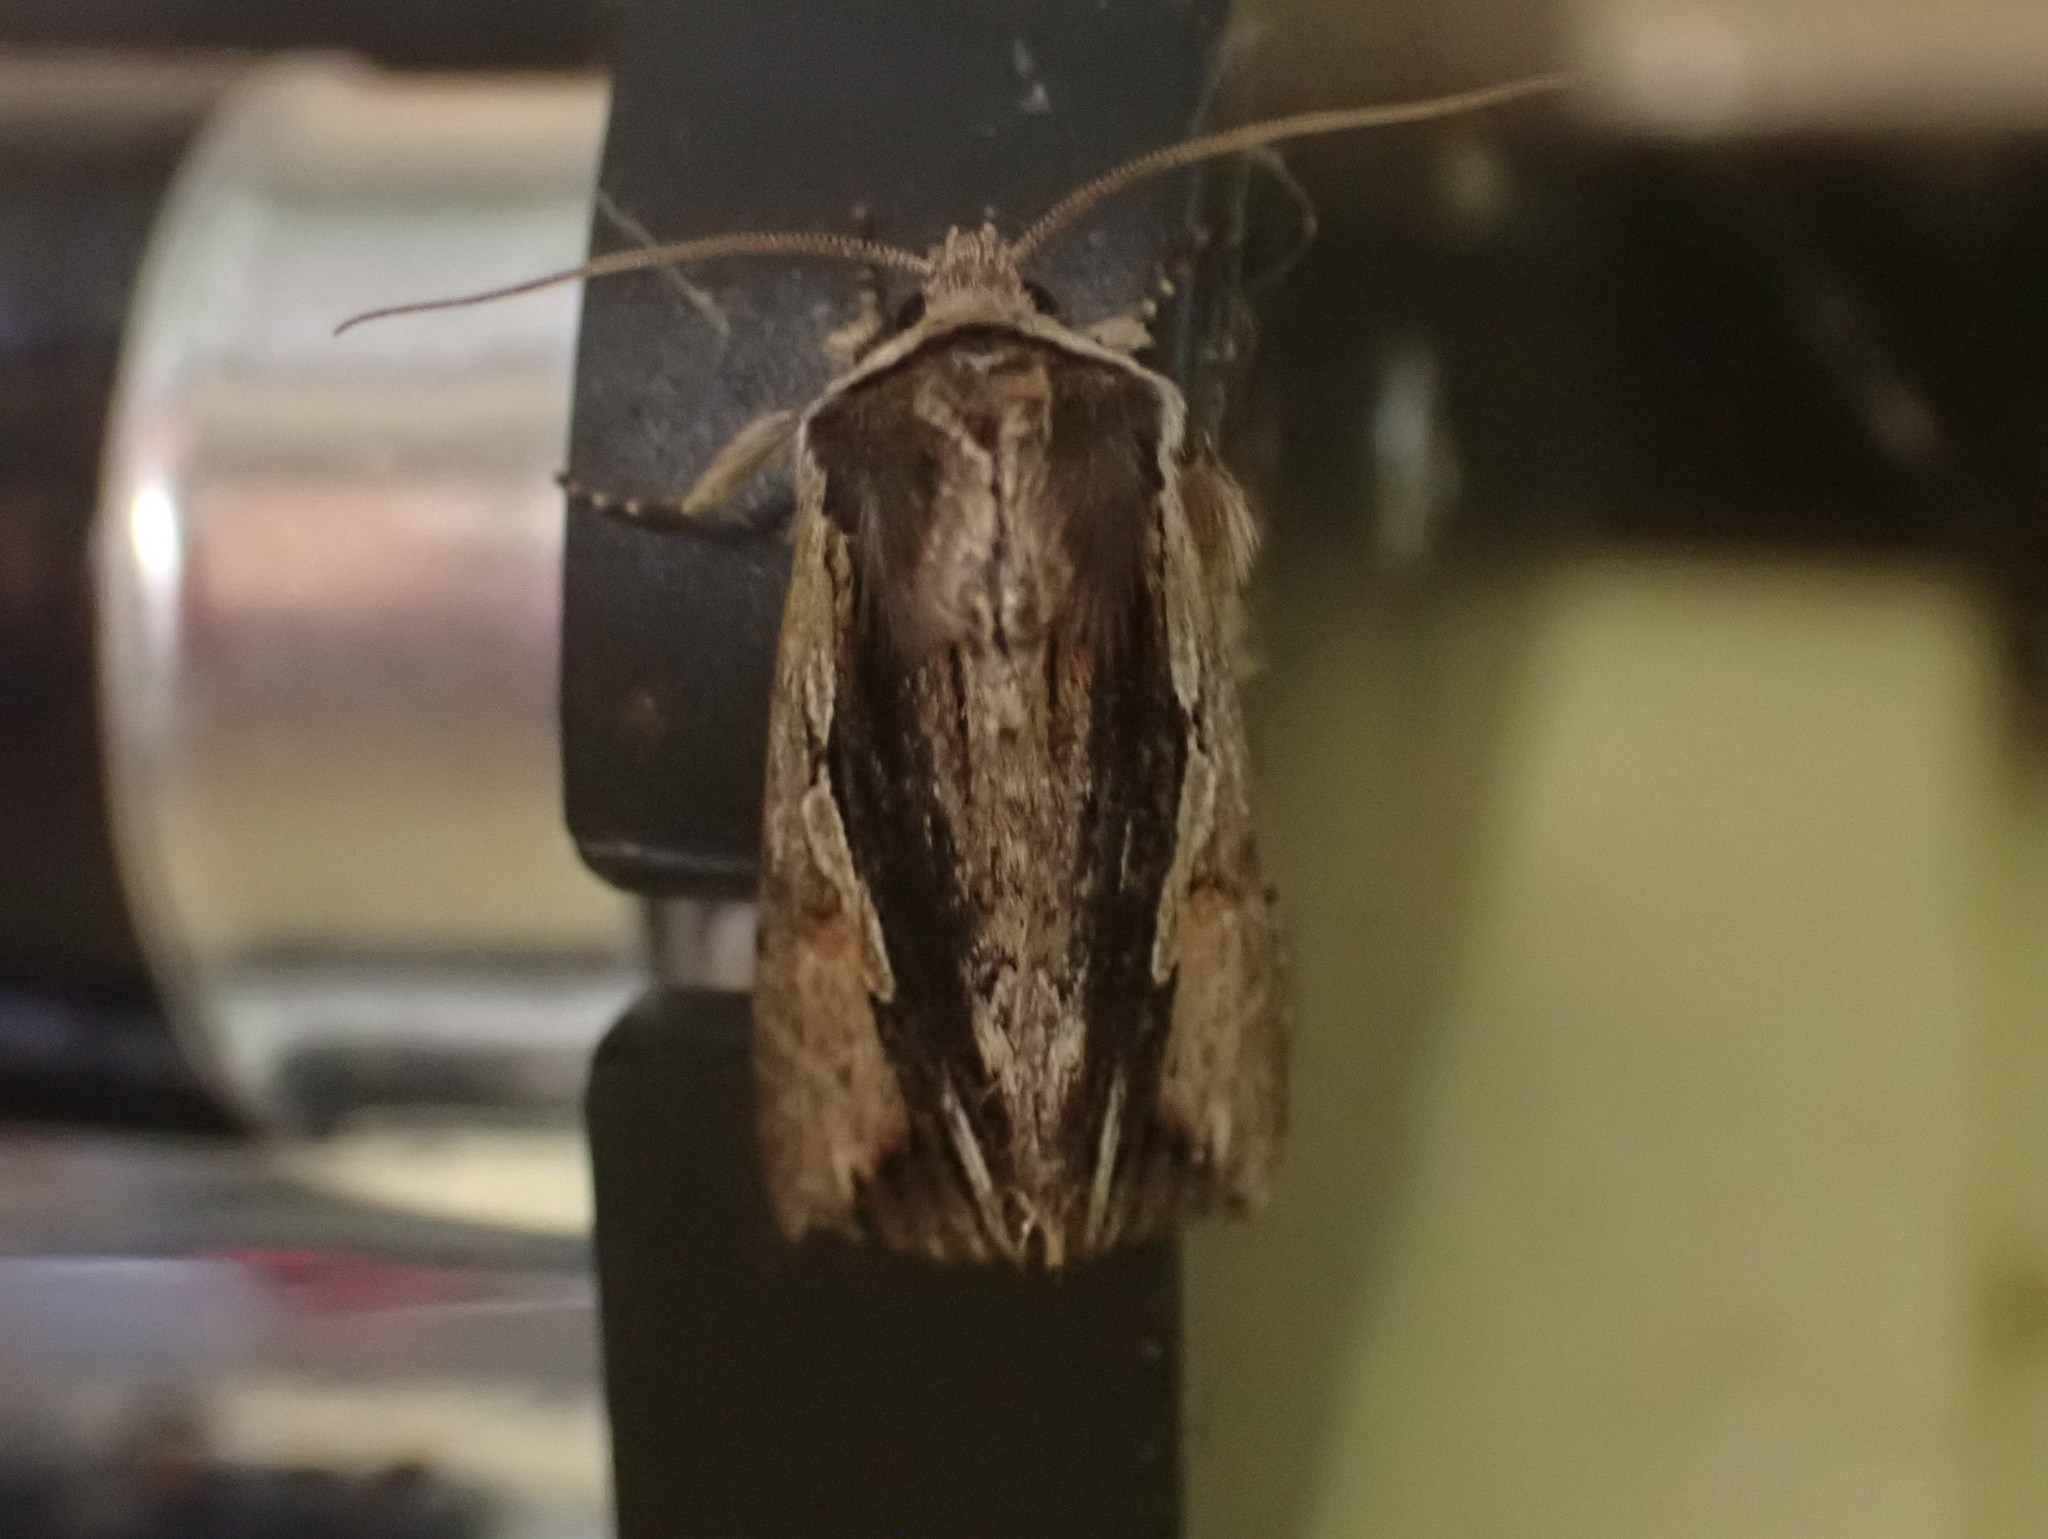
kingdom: Animalia
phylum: Arthropoda
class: Insecta
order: Lepidoptera
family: Noctuidae
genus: Achatia
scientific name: Achatia evicta
